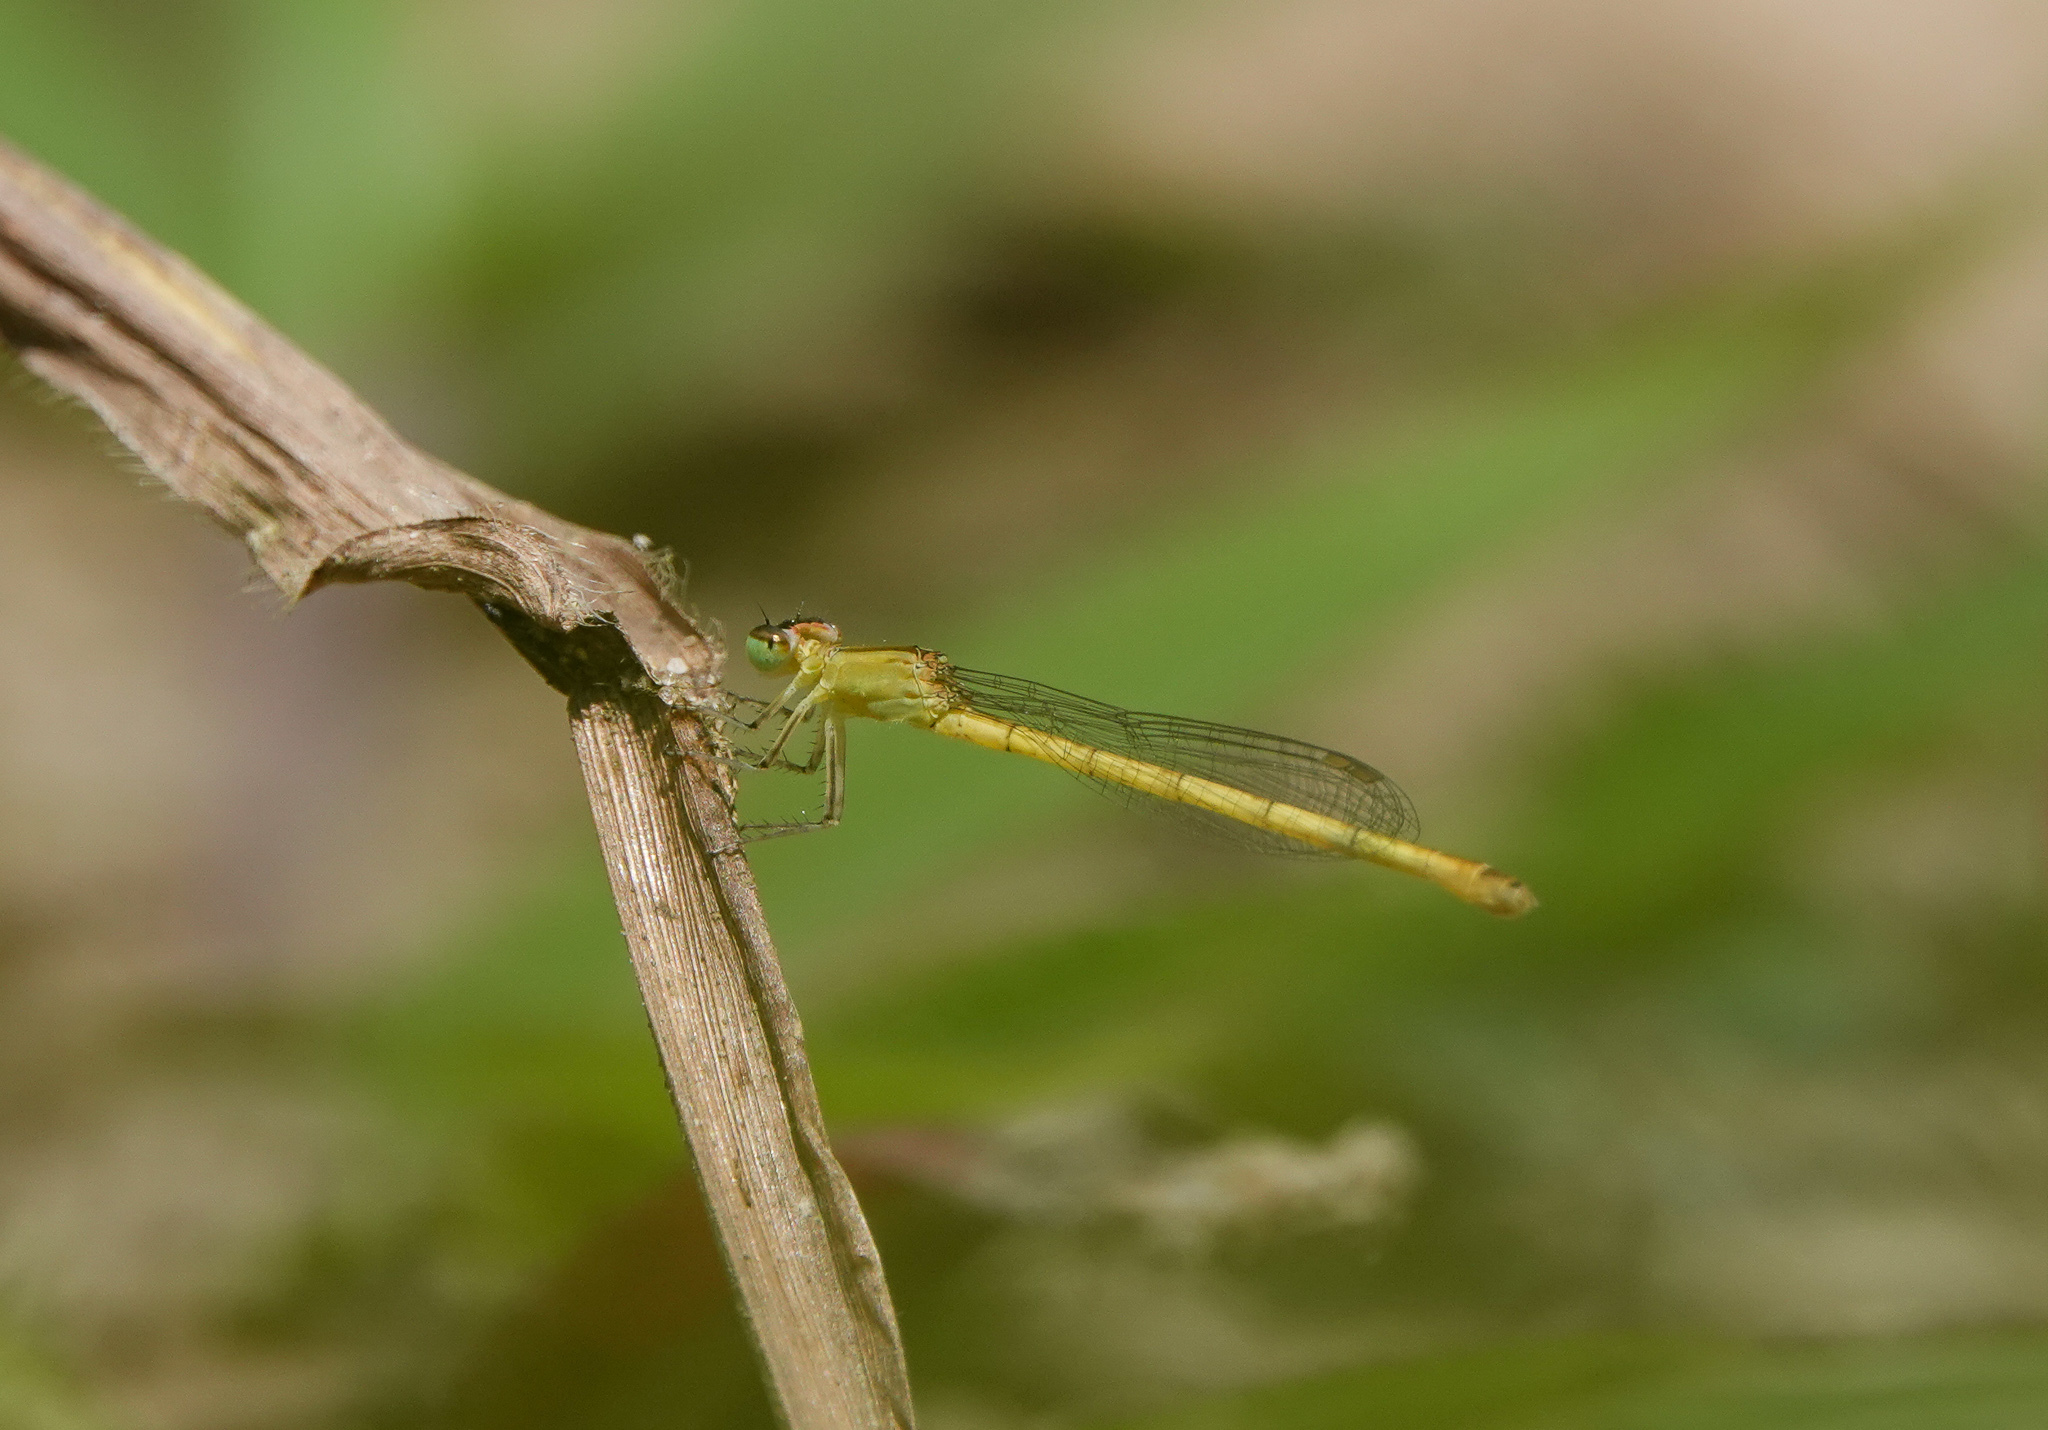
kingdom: Animalia
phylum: Arthropoda
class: Insecta
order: Odonata
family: Coenagrionidae
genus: Agriocnemis
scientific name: Agriocnemis kalinga
